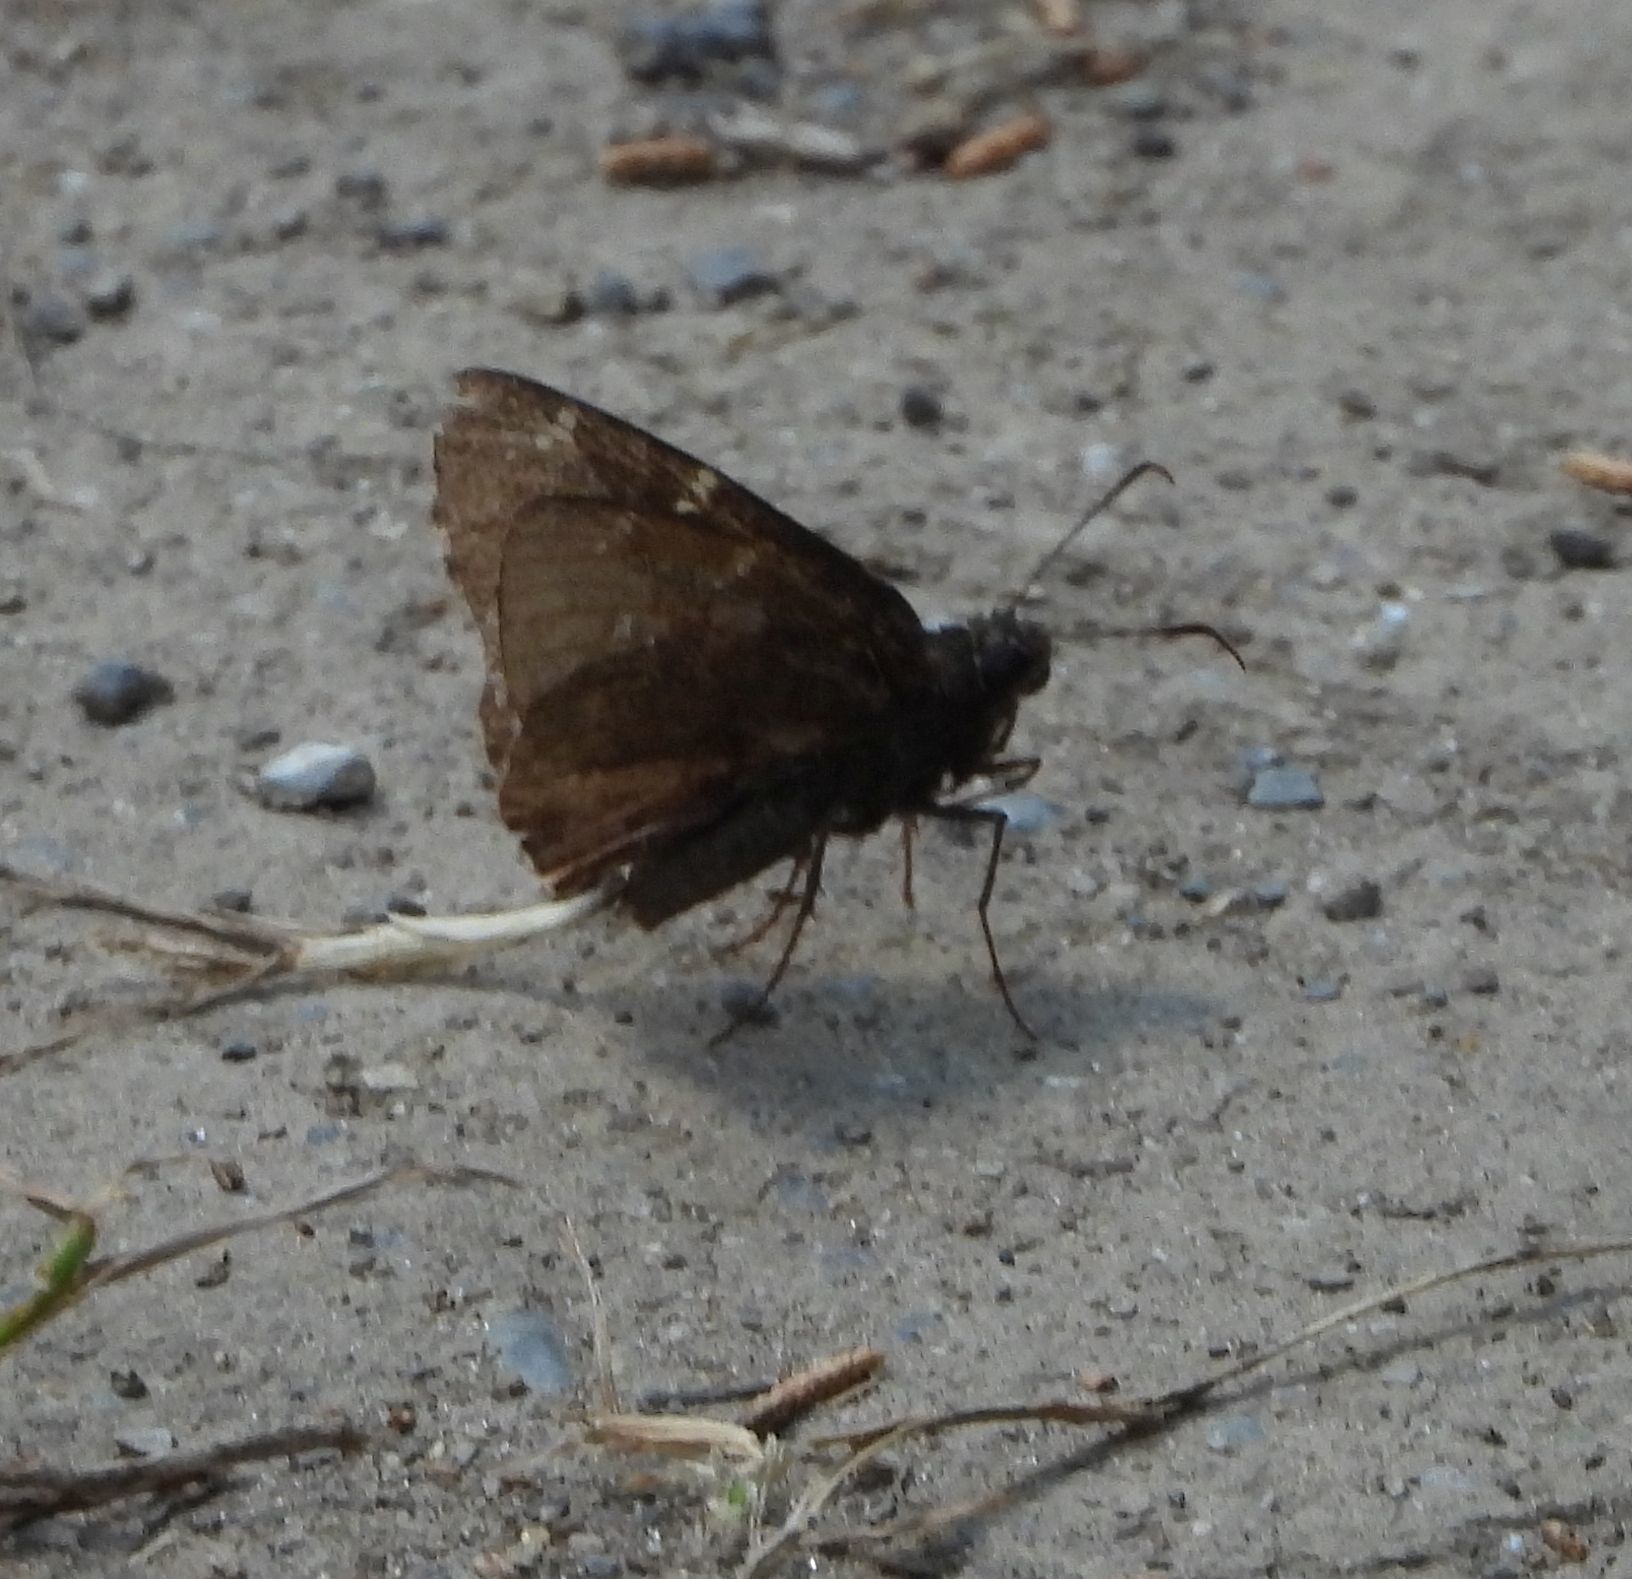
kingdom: Animalia
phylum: Arthropoda
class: Insecta
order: Lepidoptera
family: Hesperiidae
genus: Thorybes
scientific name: Thorybes pylades
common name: Northern cloudywing
